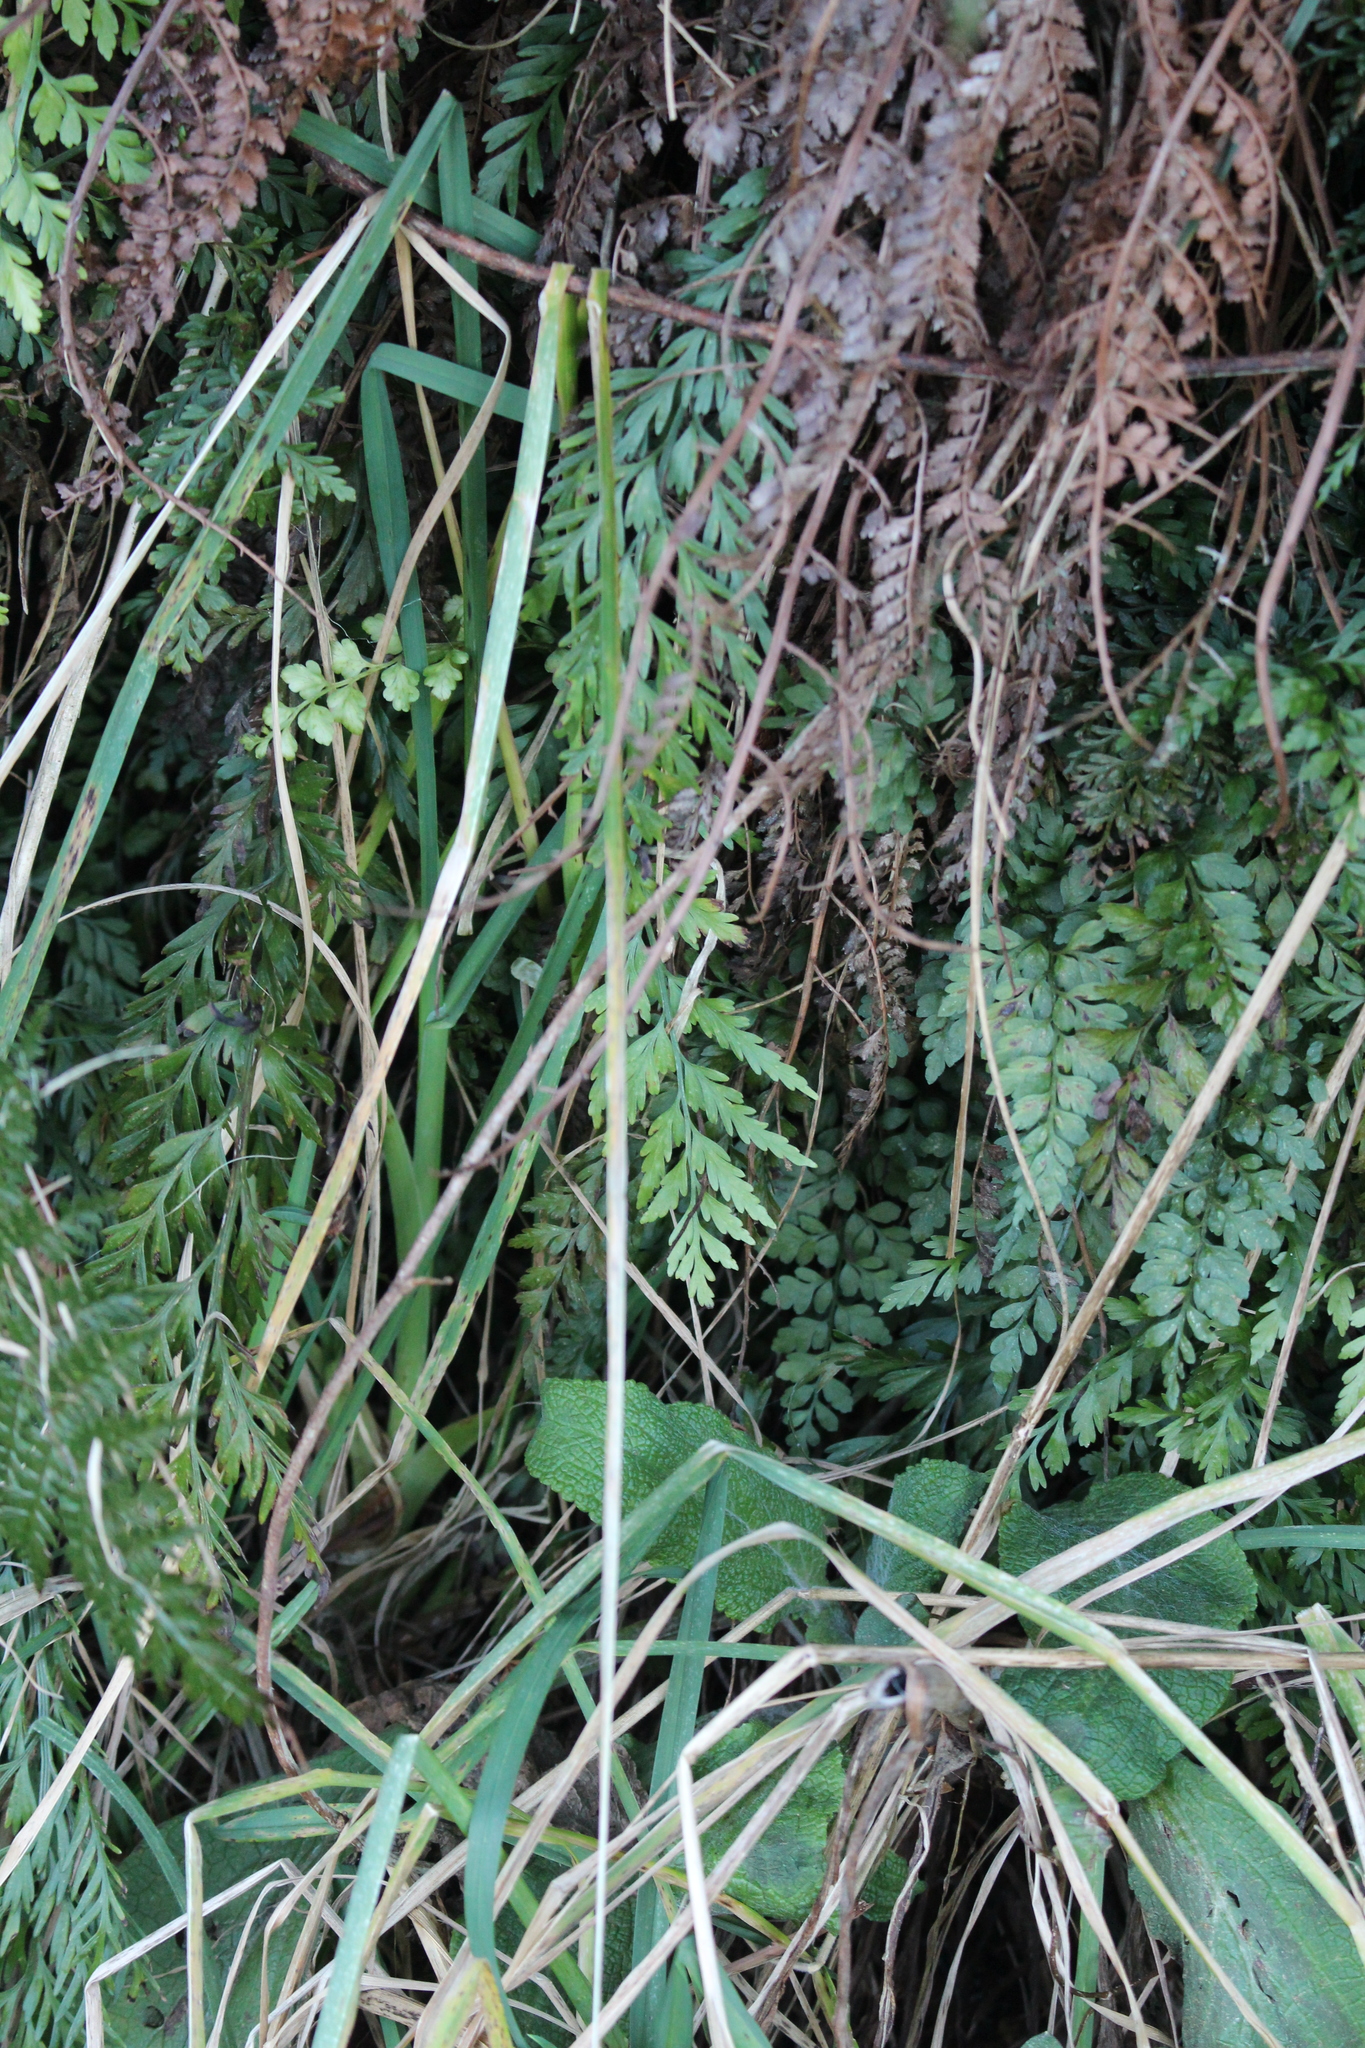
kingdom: Plantae
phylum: Tracheophyta
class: Polypodiopsida
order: Polypodiales
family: Aspleniaceae
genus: Asplenium
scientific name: Asplenium appendiculatum
